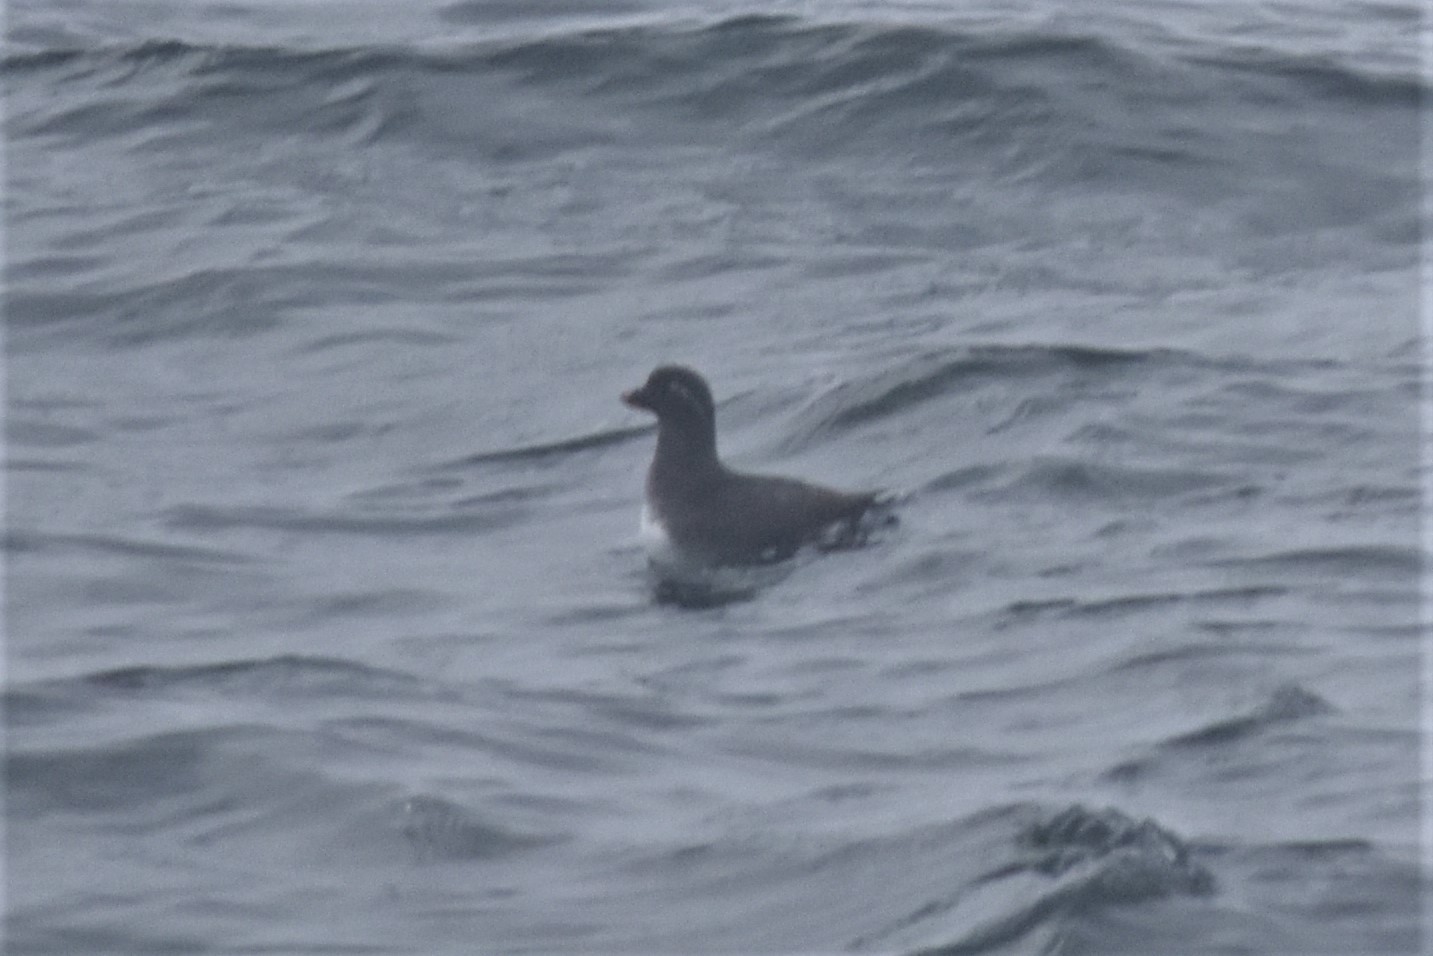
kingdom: Animalia
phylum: Chordata
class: Aves
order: Charadriiformes
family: Alcidae
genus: Aethia
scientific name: Aethia psittacula
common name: Parakeet auklet
